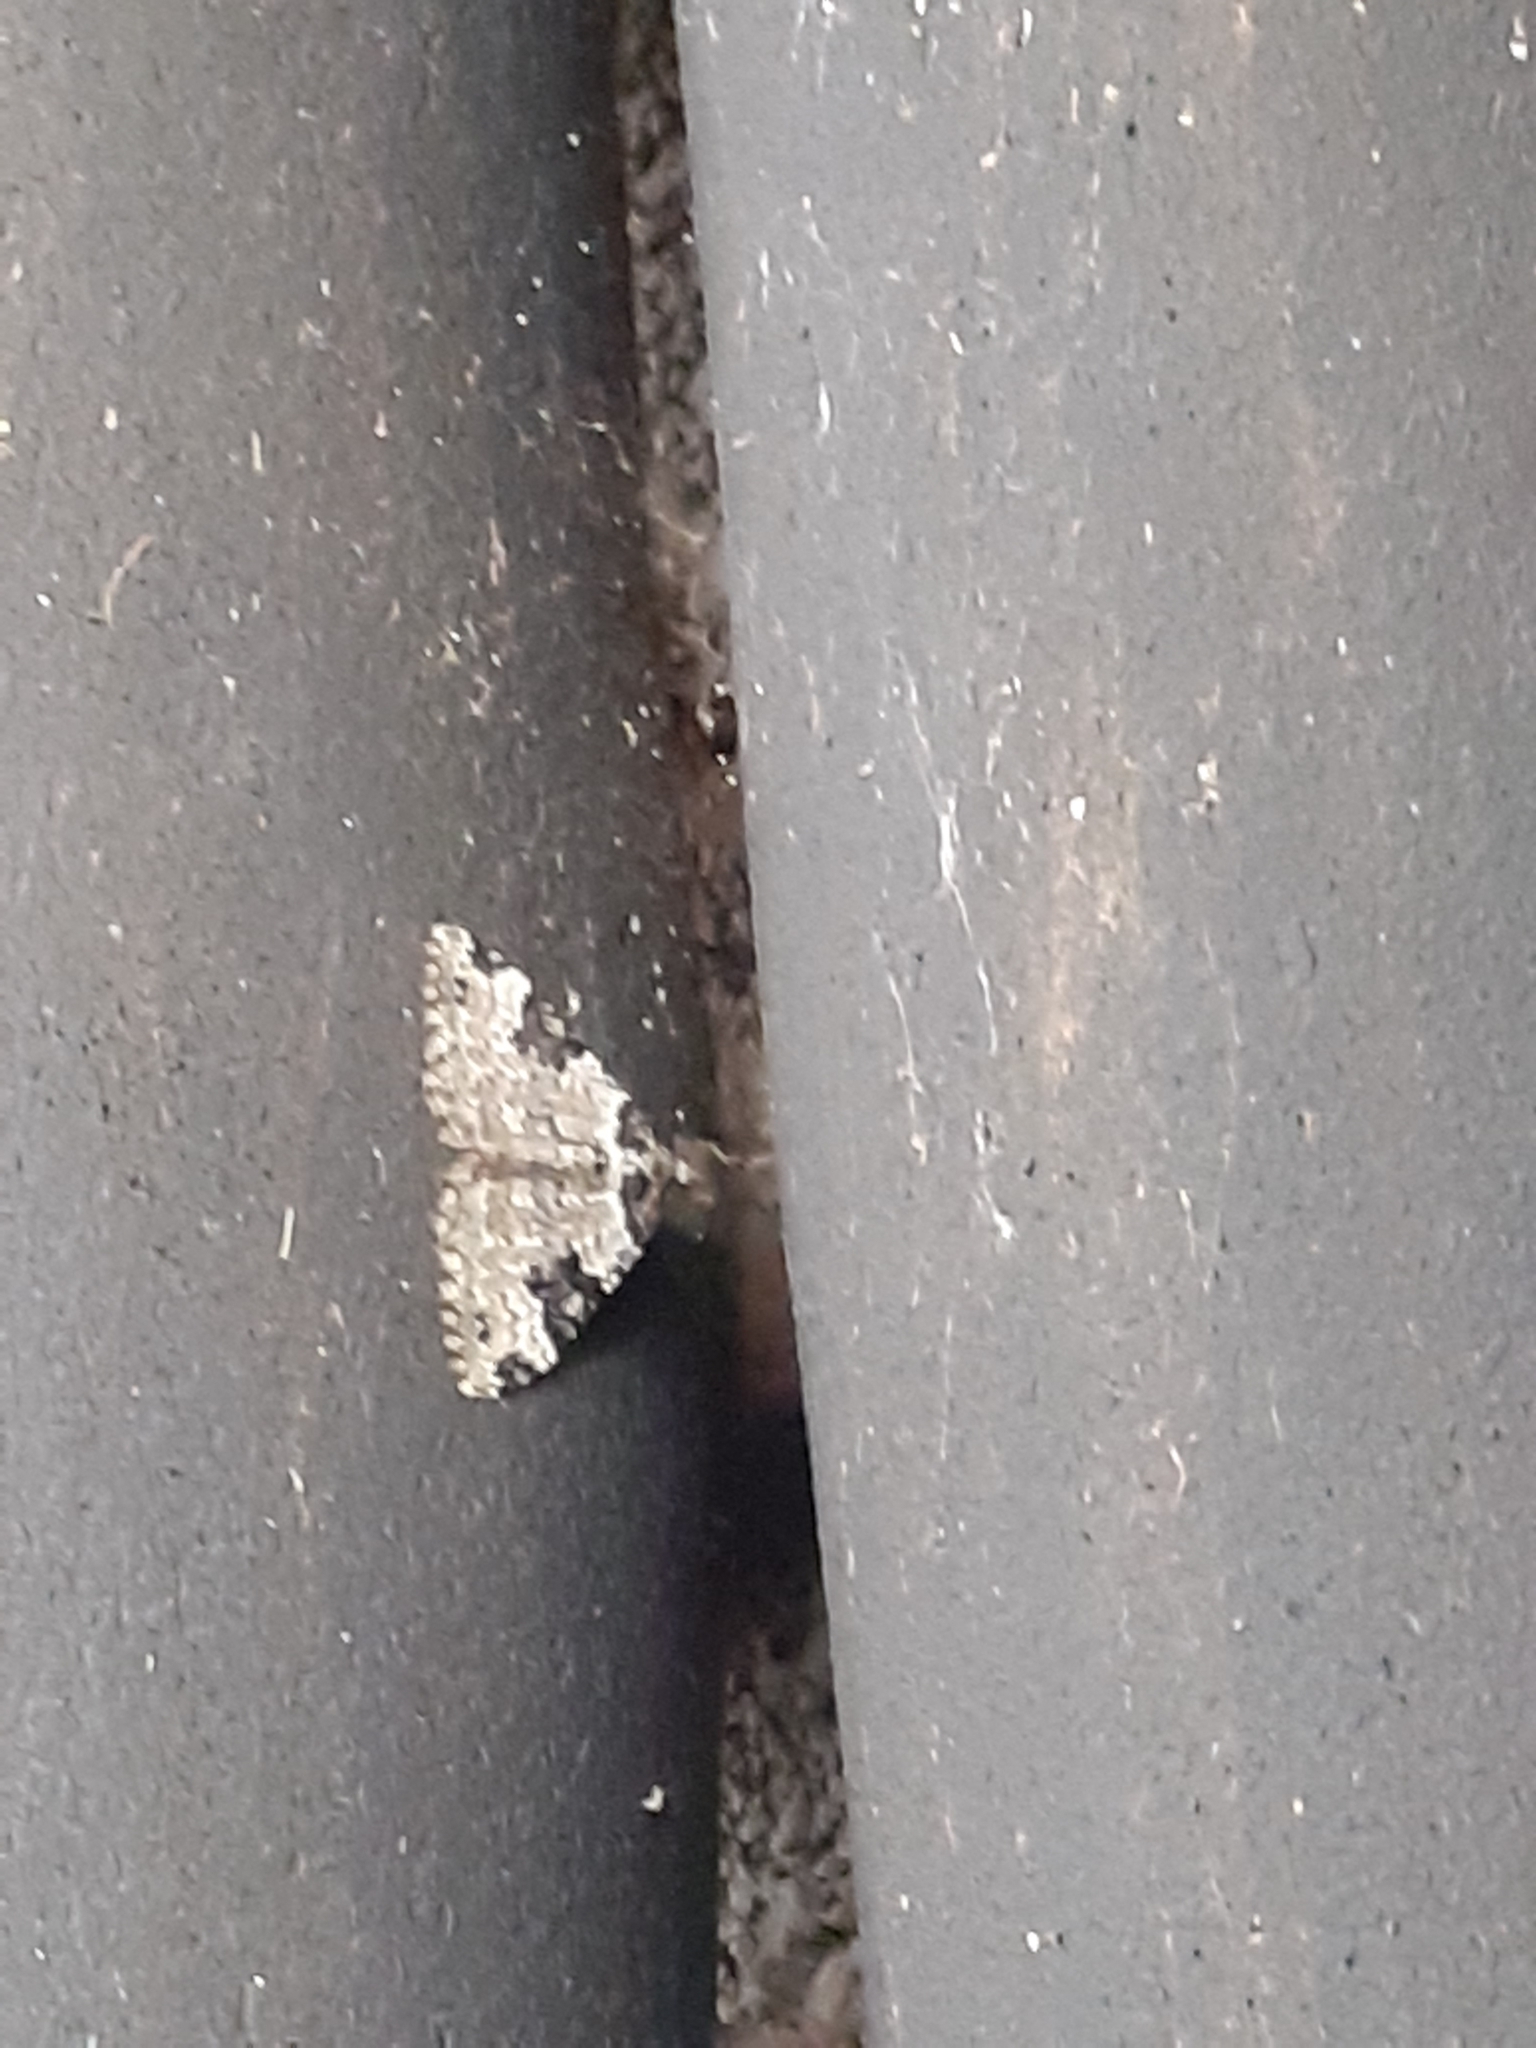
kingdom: Animalia
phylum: Arthropoda
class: Insecta
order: Lepidoptera
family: Geometridae
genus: Xanthorhoe
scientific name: Xanthorhoe fluctuata
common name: Garden carpet
